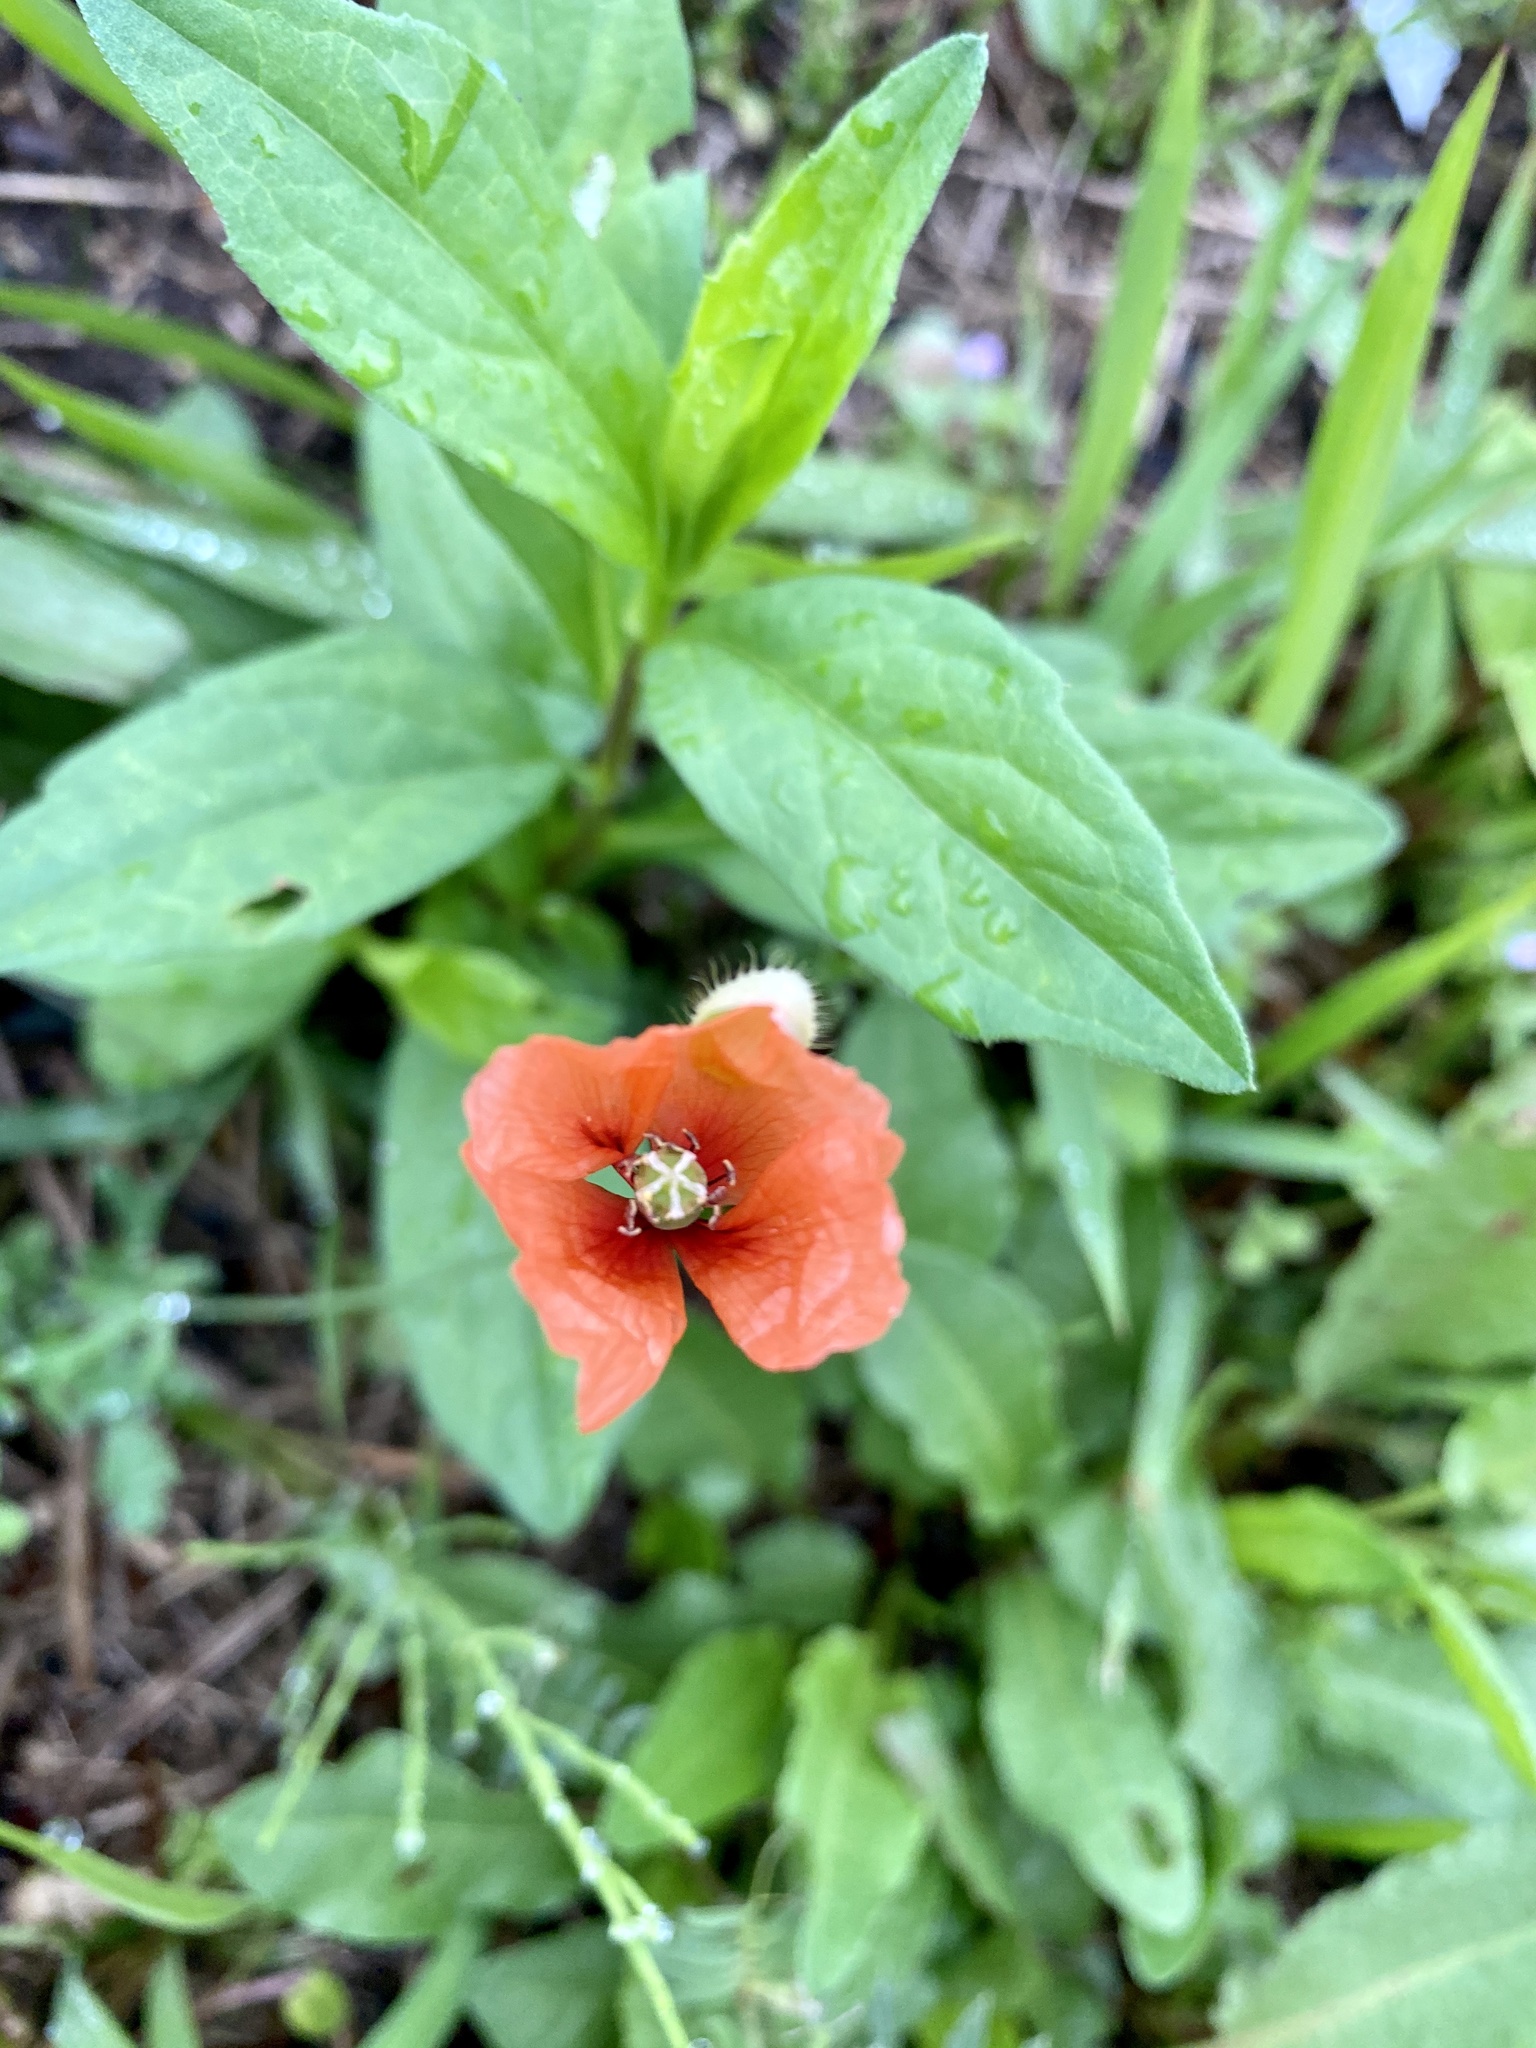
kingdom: Plantae
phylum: Tracheophyta
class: Magnoliopsida
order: Ranunculales
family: Papaveraceae
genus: Papaver
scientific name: Papaver dubium
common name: Long-headed poppy
